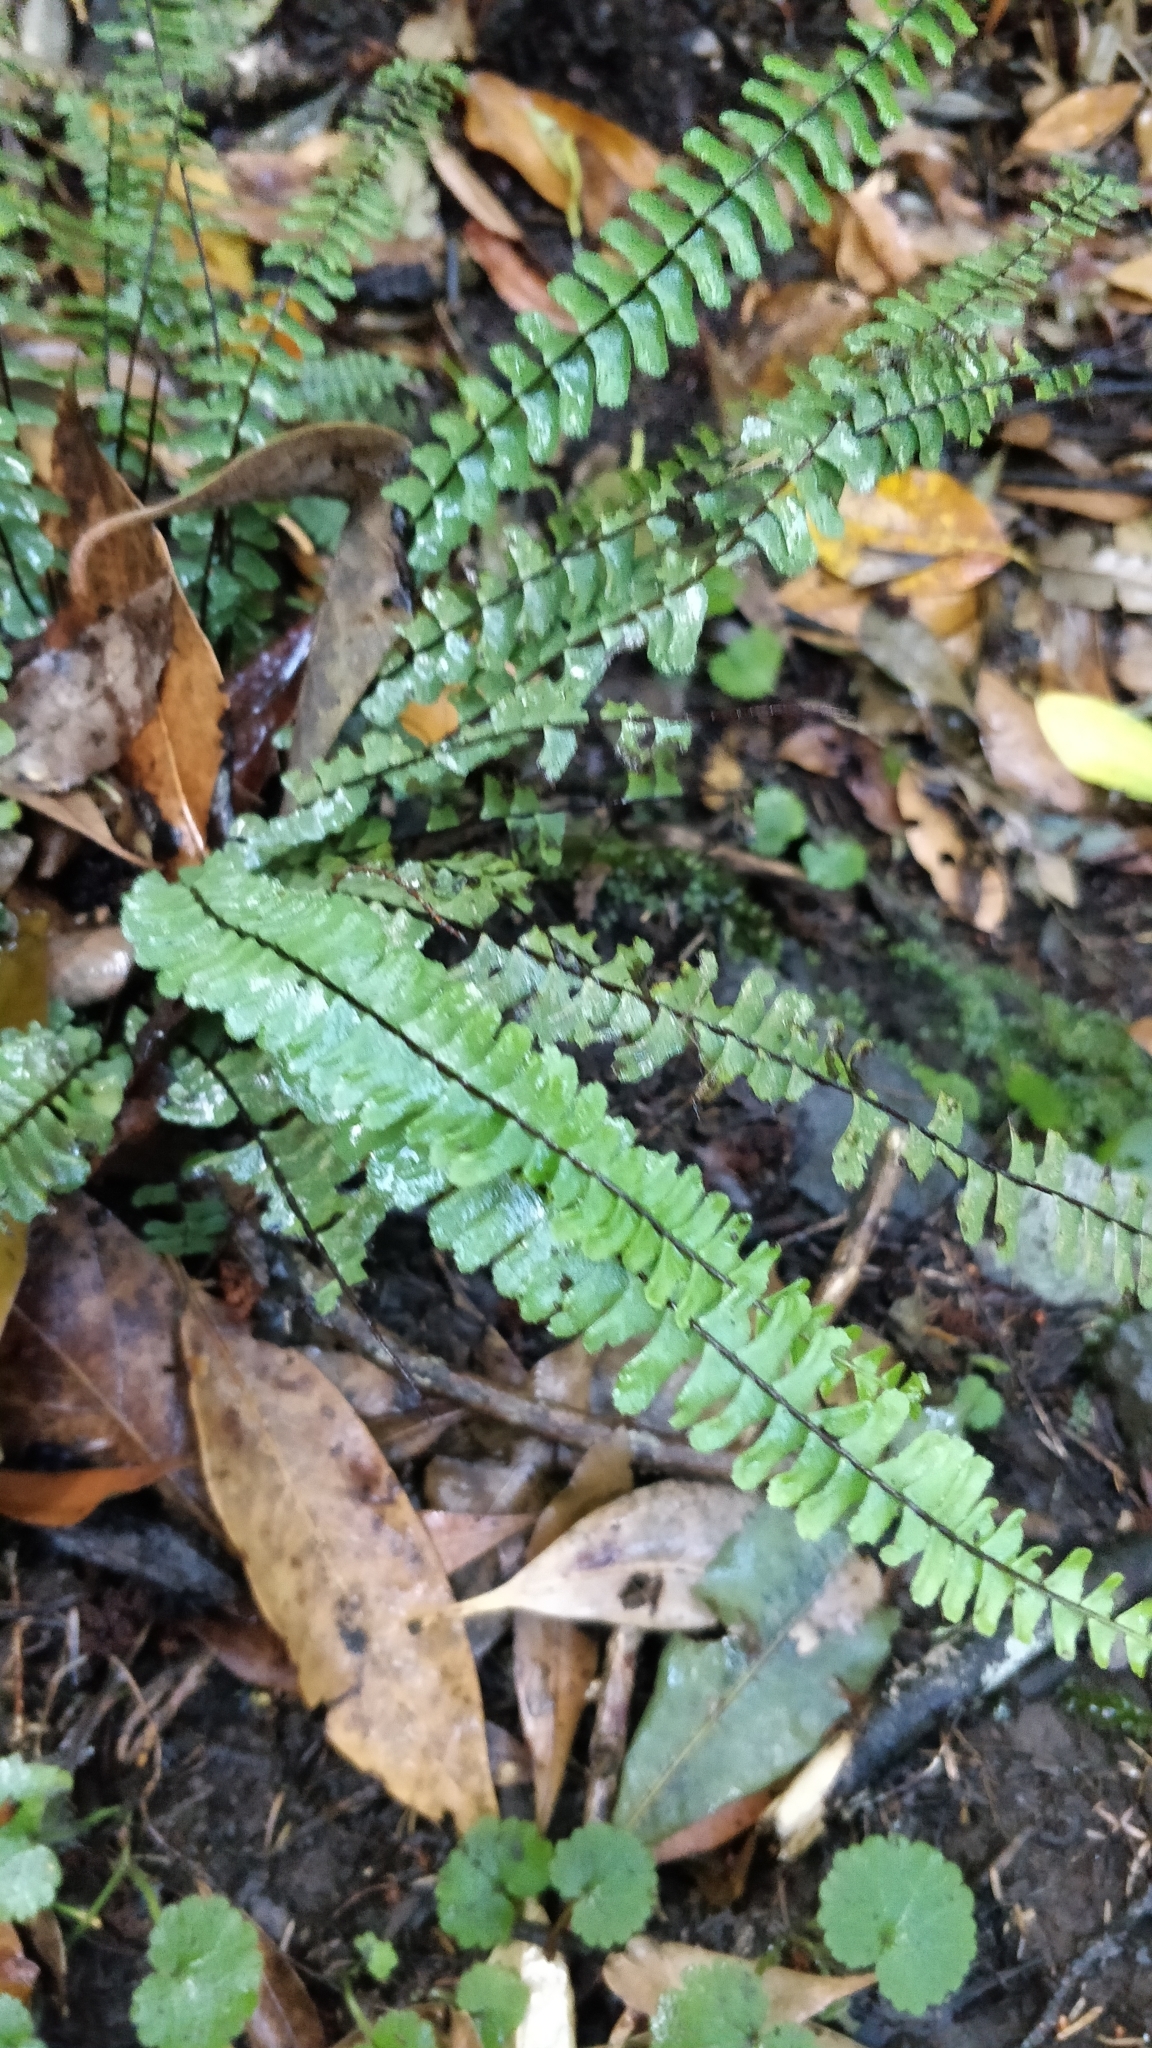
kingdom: Plantae
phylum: Tracheophyta
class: Polypodiopsida
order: Polypodiales
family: Aspleniaceae
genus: Asplenium
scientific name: Asplenium monanthes
